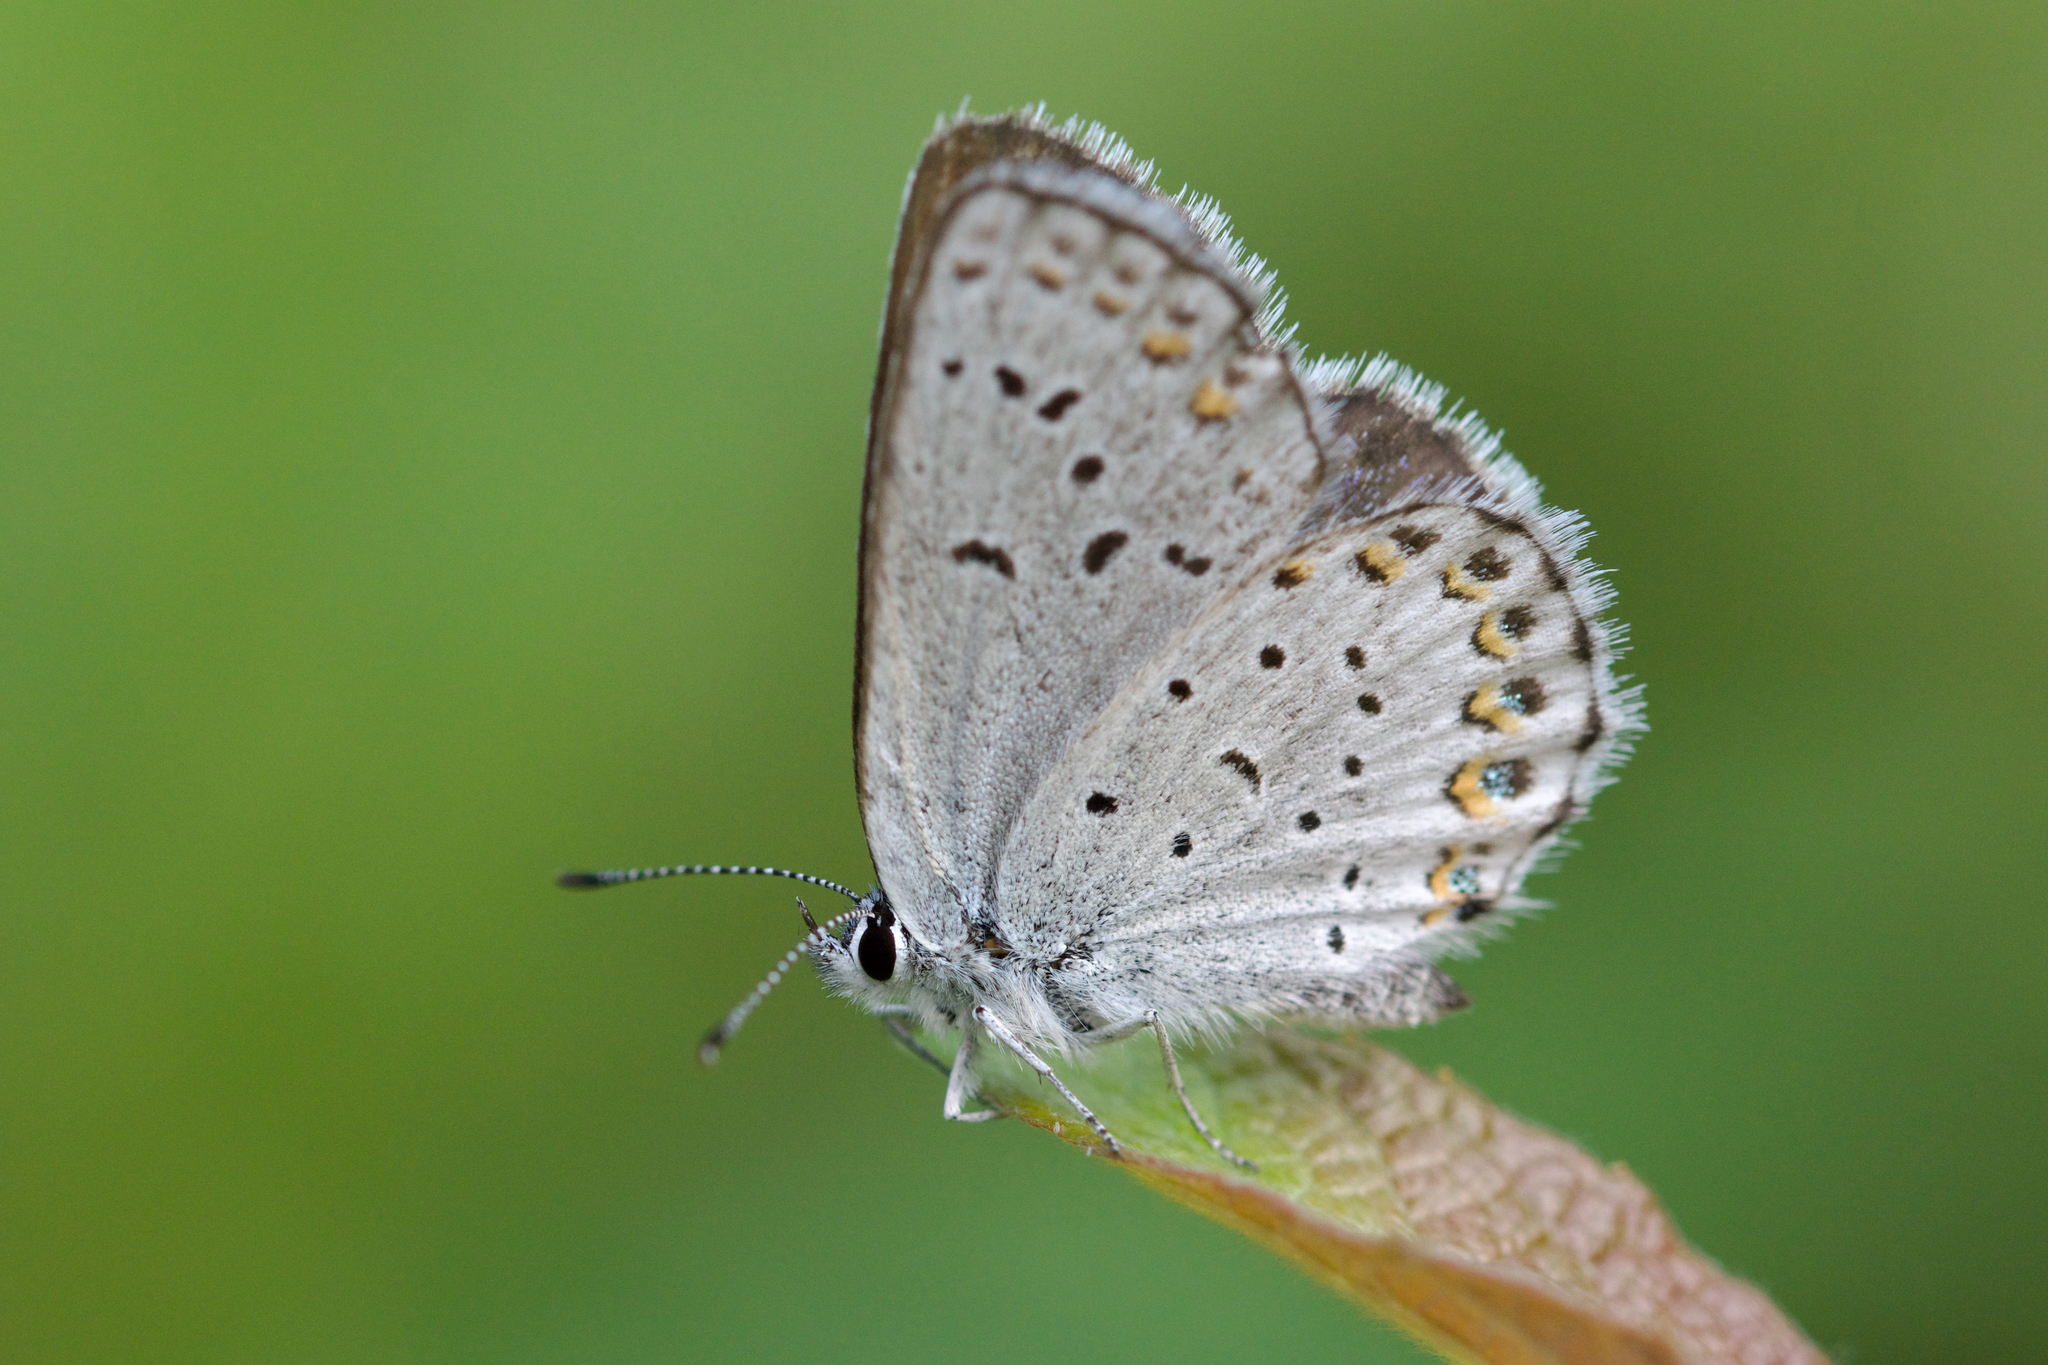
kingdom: Animalia
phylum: Arthropoda
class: Insecta
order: Lepidoptera
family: Lycaenidae
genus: Lycaeides
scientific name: Lycaeides idas
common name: Northern blue
